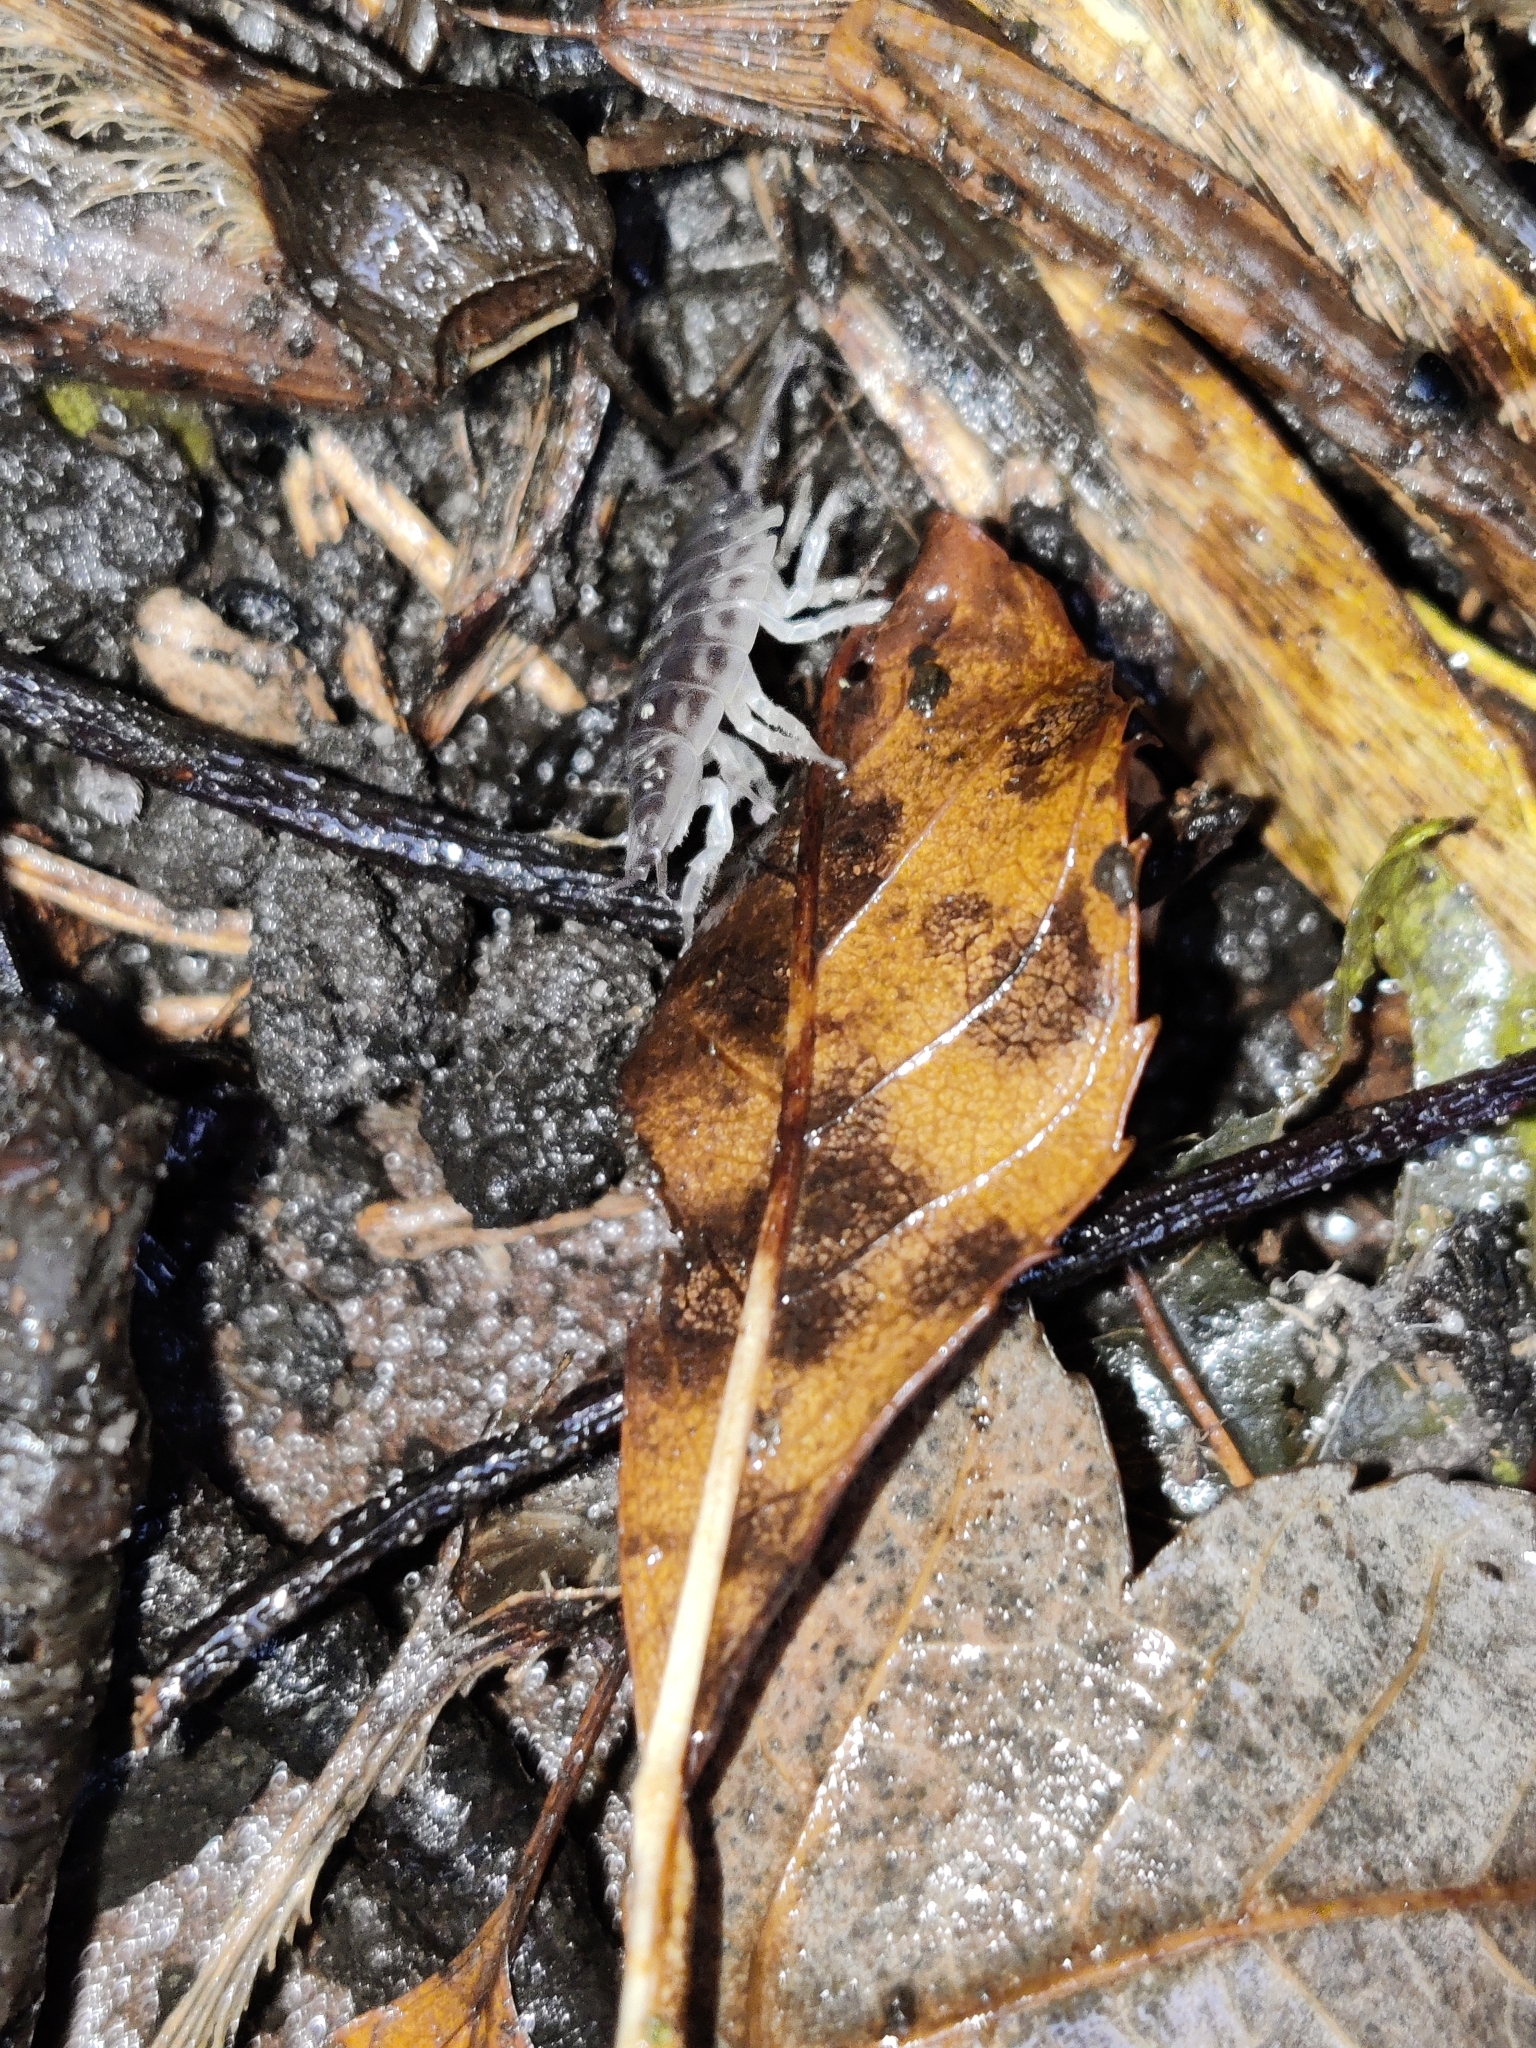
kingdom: Animalia
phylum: Arthropoda
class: Malacostraca
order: Isopoda
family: Oniscidae
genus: Oniscus
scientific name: Oniscus asellus
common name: Common shiny woodlouse
